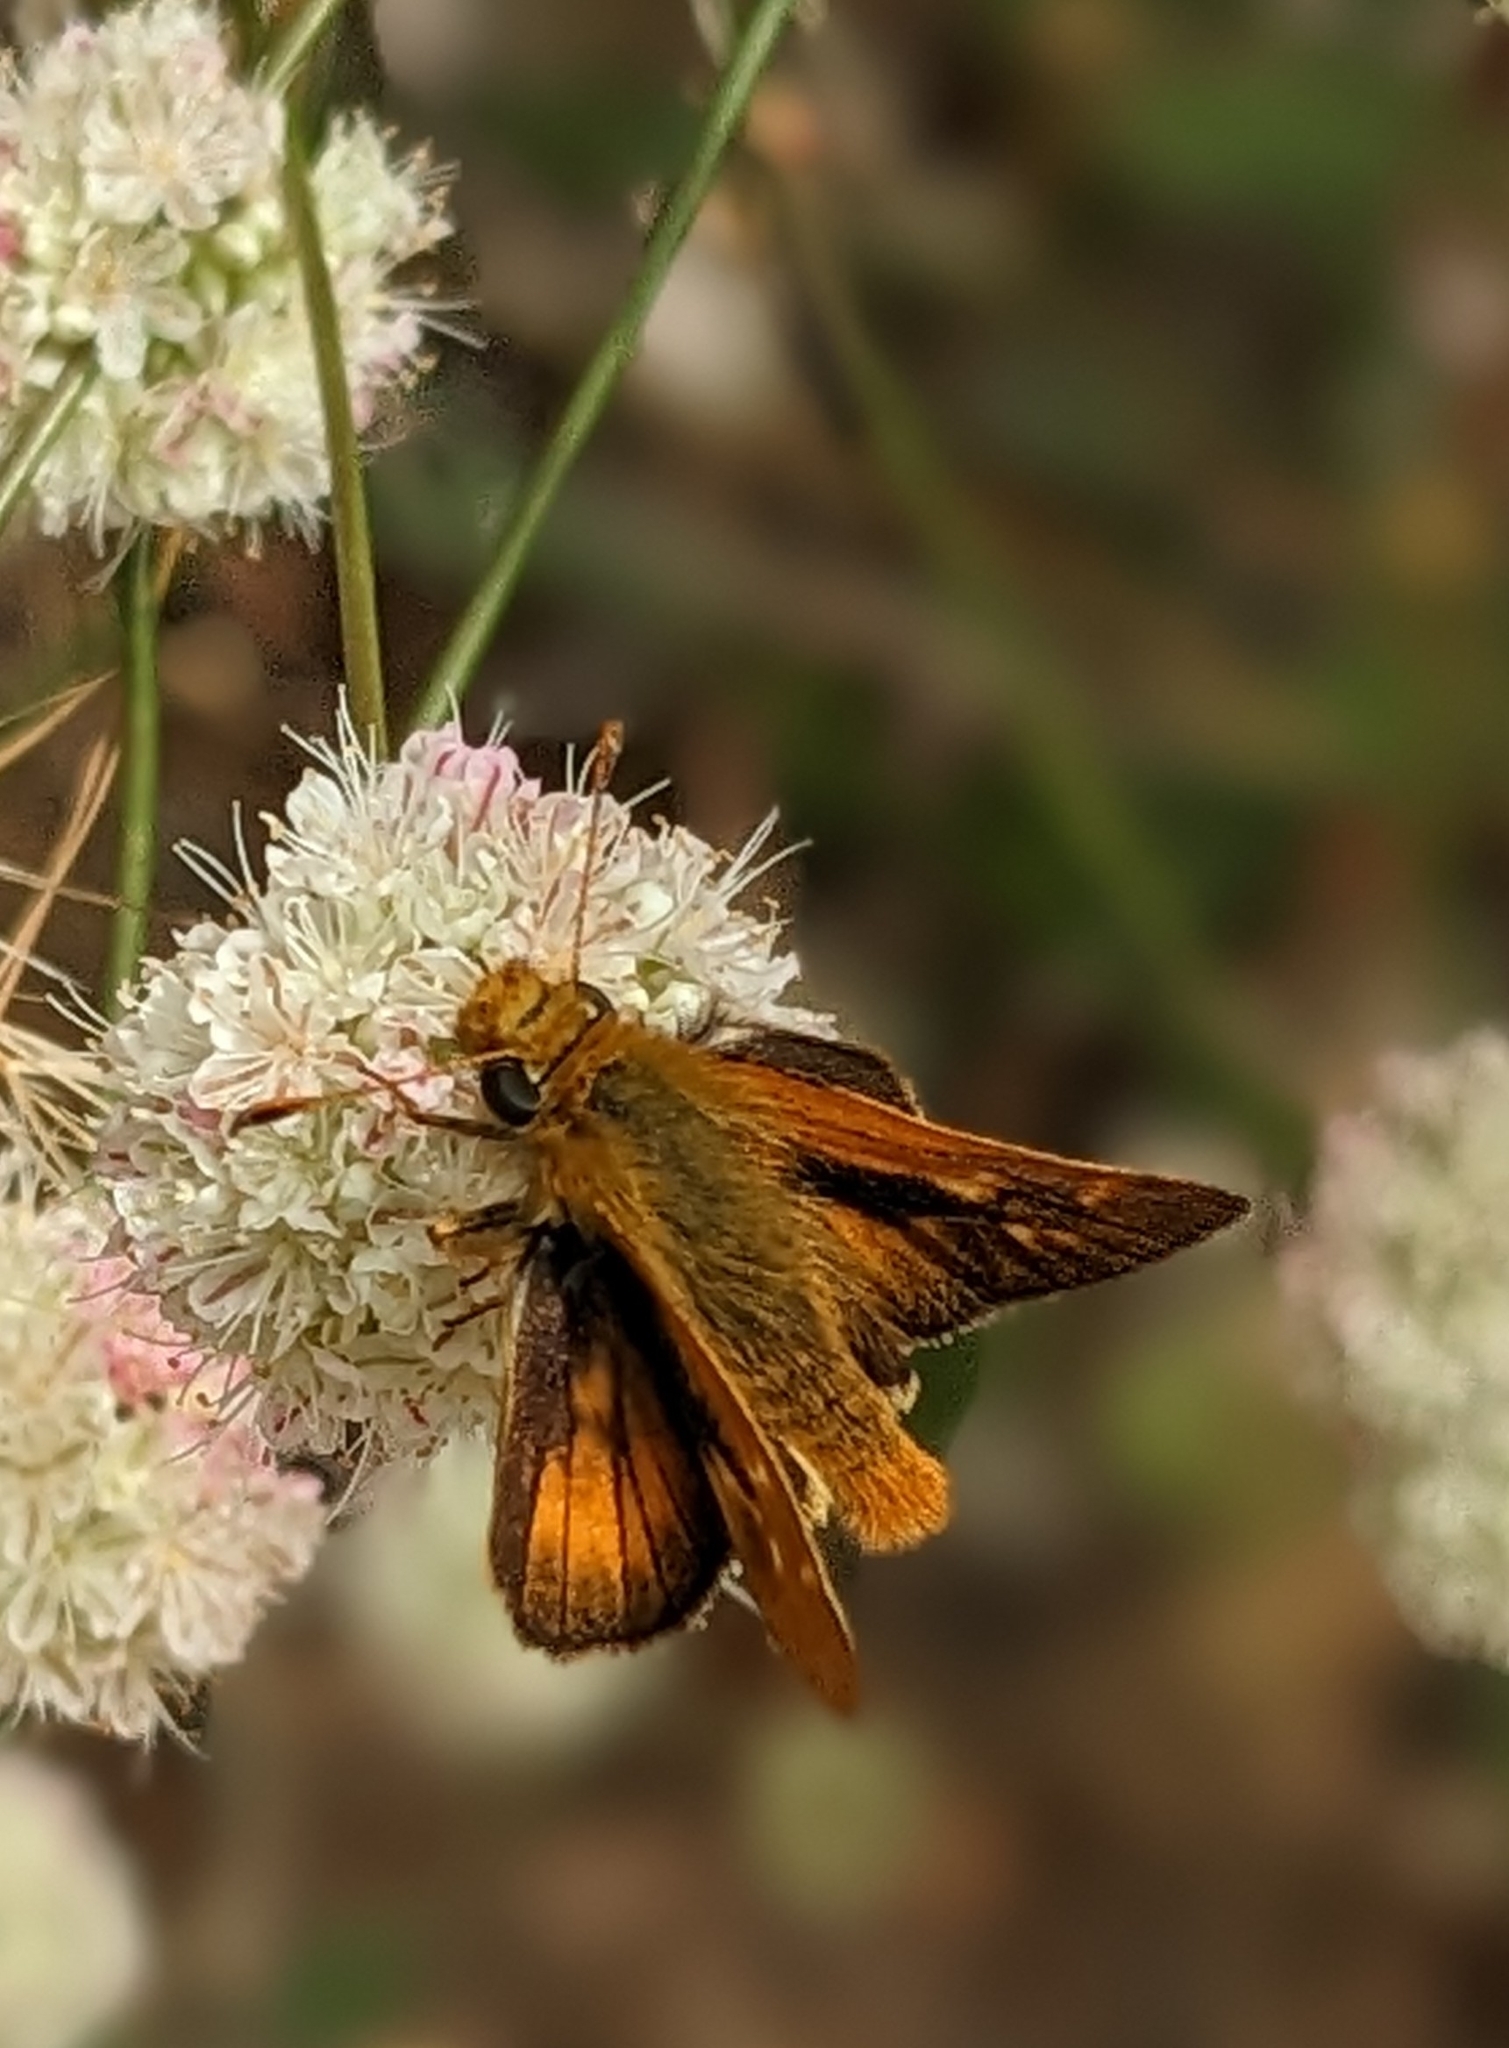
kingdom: Animalia
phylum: Arthropoda
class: Insecta
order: Lepidoptera
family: Hesperiidae
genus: Ochlodes
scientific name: Ochlodes agricola
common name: Rural skipper
